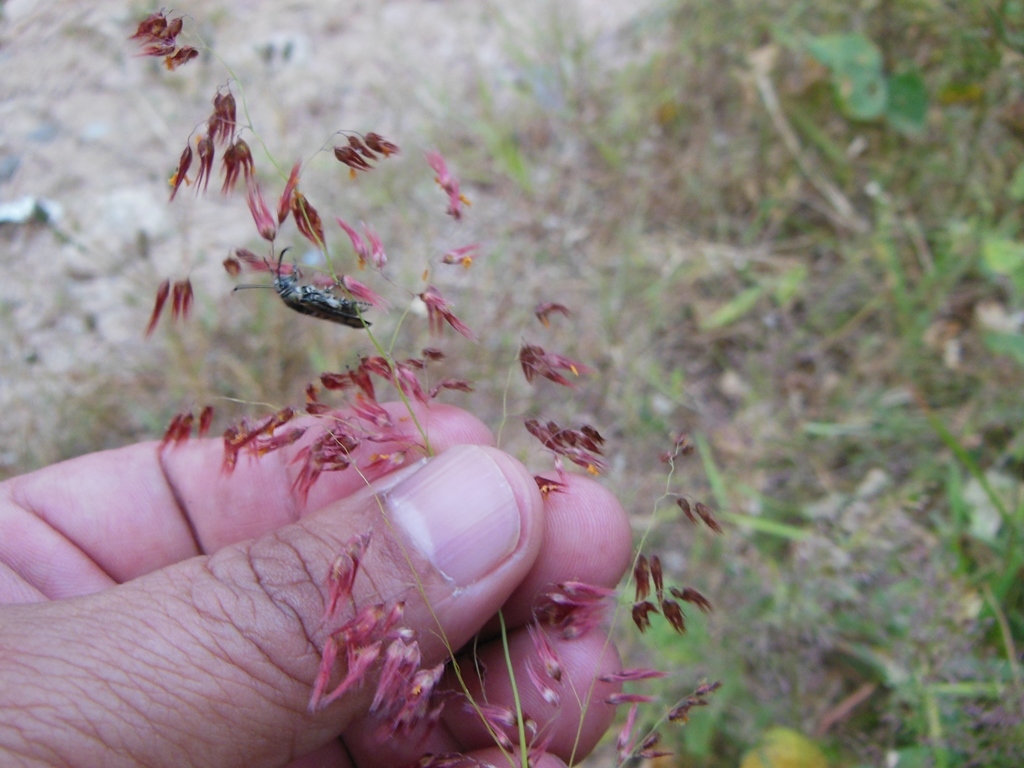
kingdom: Plantae
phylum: Tracheophyta
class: Liliopsida
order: Poales
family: Poaceae
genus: Melinis
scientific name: Melinis repens
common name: Rose natal grass
